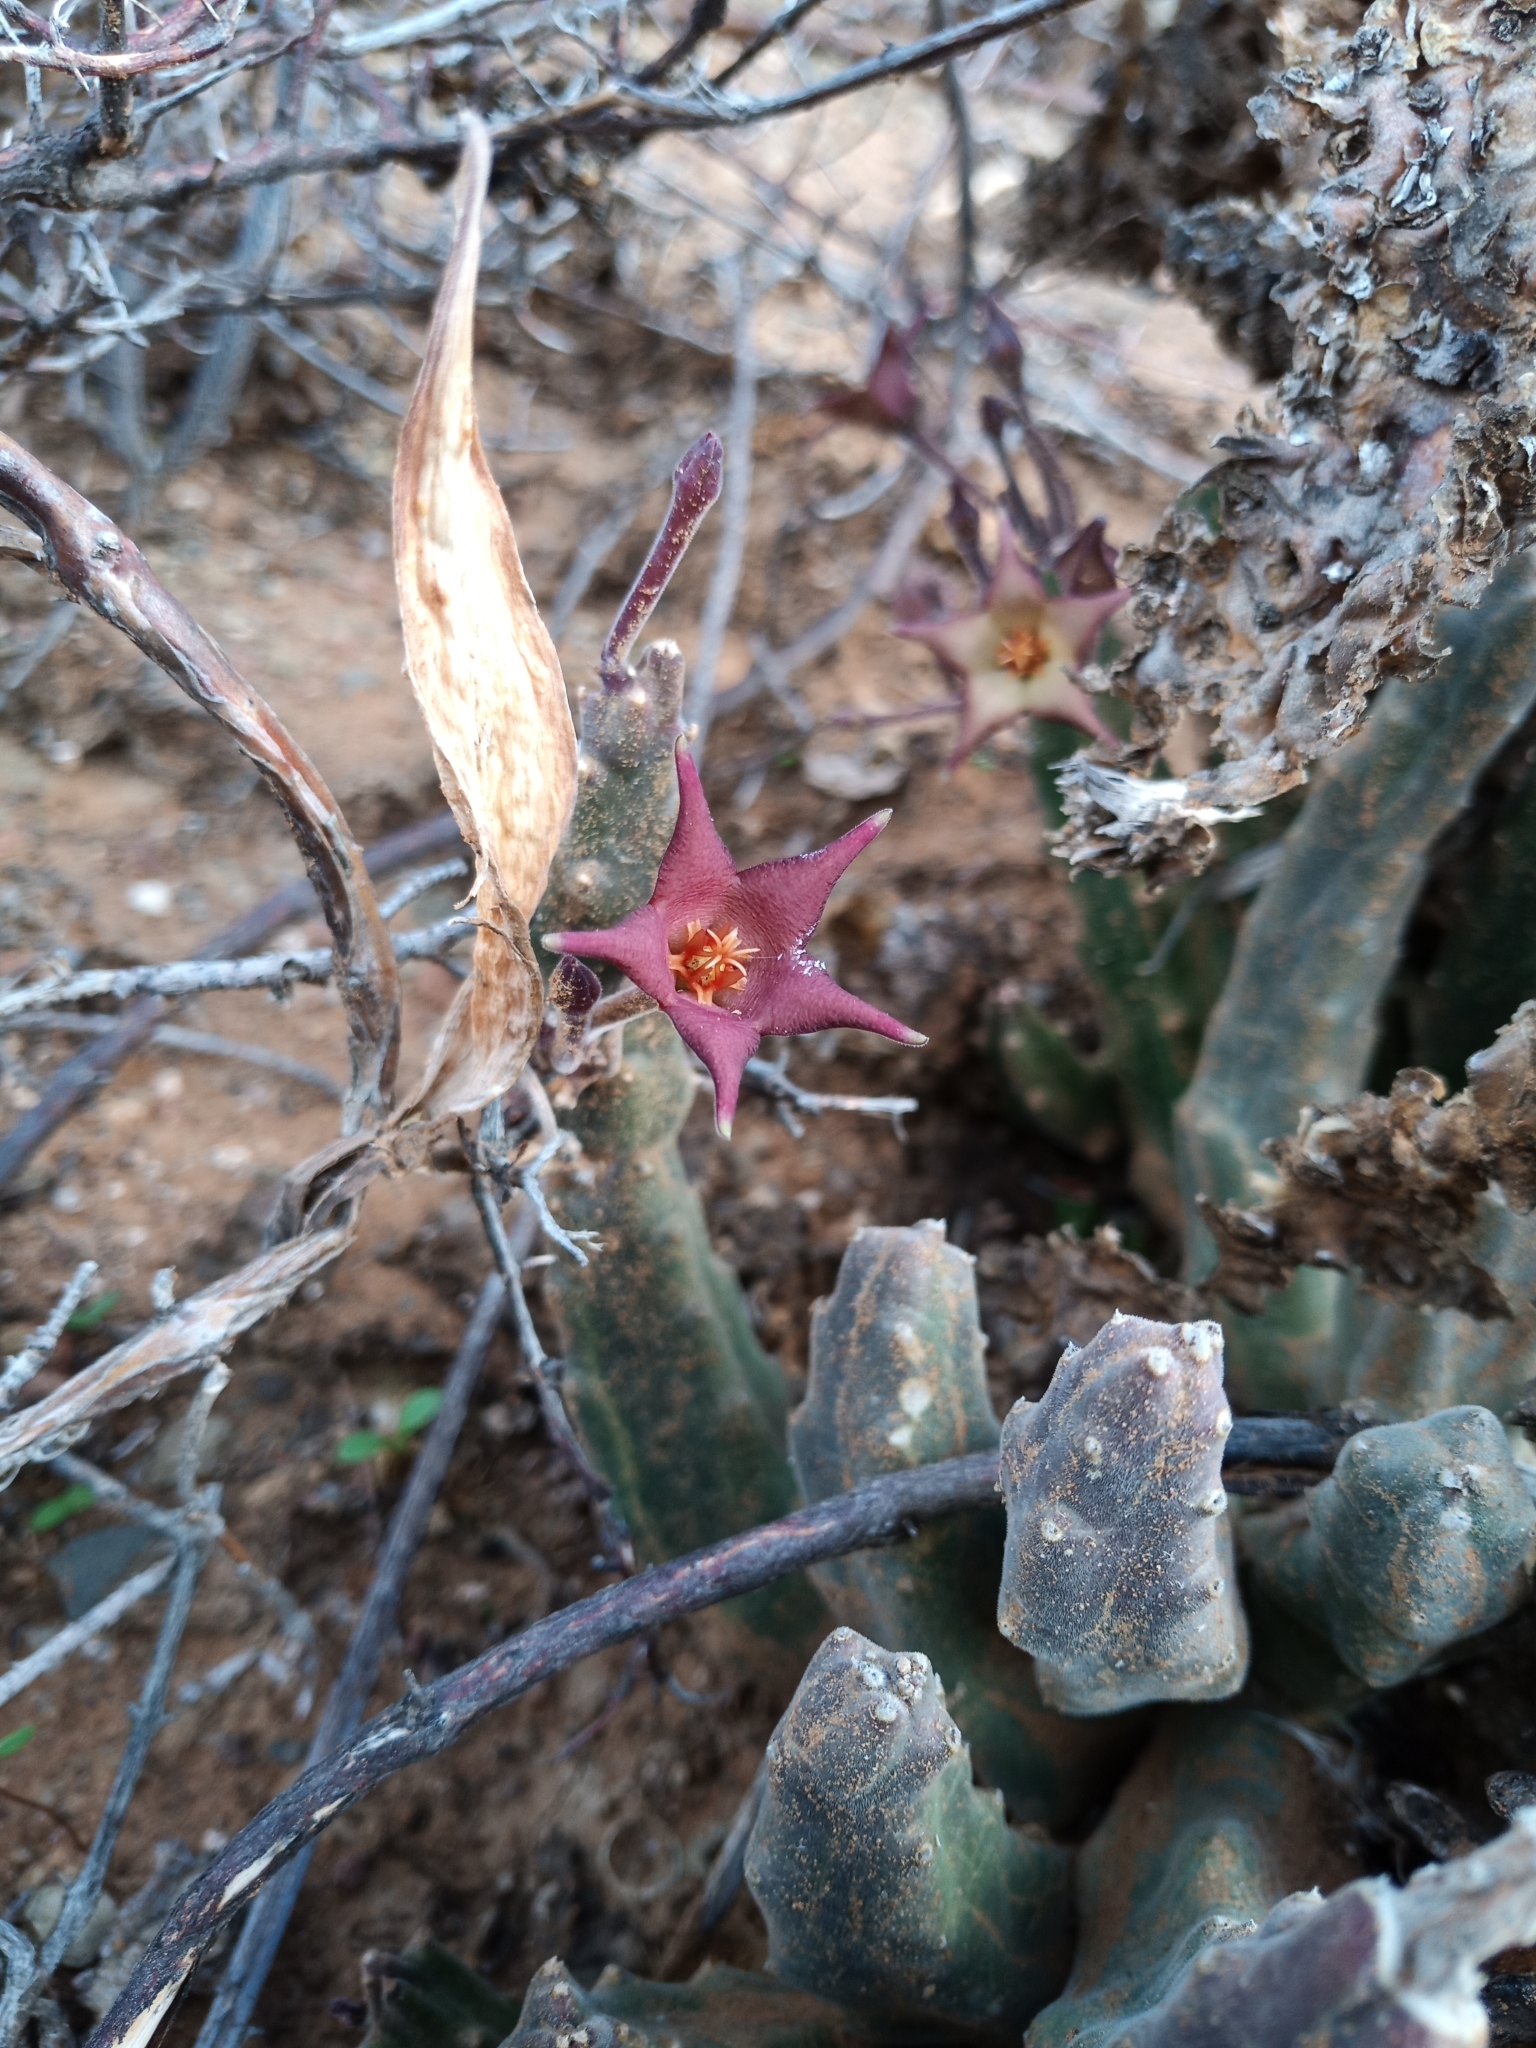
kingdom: Plantae
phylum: Tracheophyta
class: Magnoliopsida
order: Gentianales
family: Apocynaceae
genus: Ceropegia
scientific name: Ceropegia surrecta
